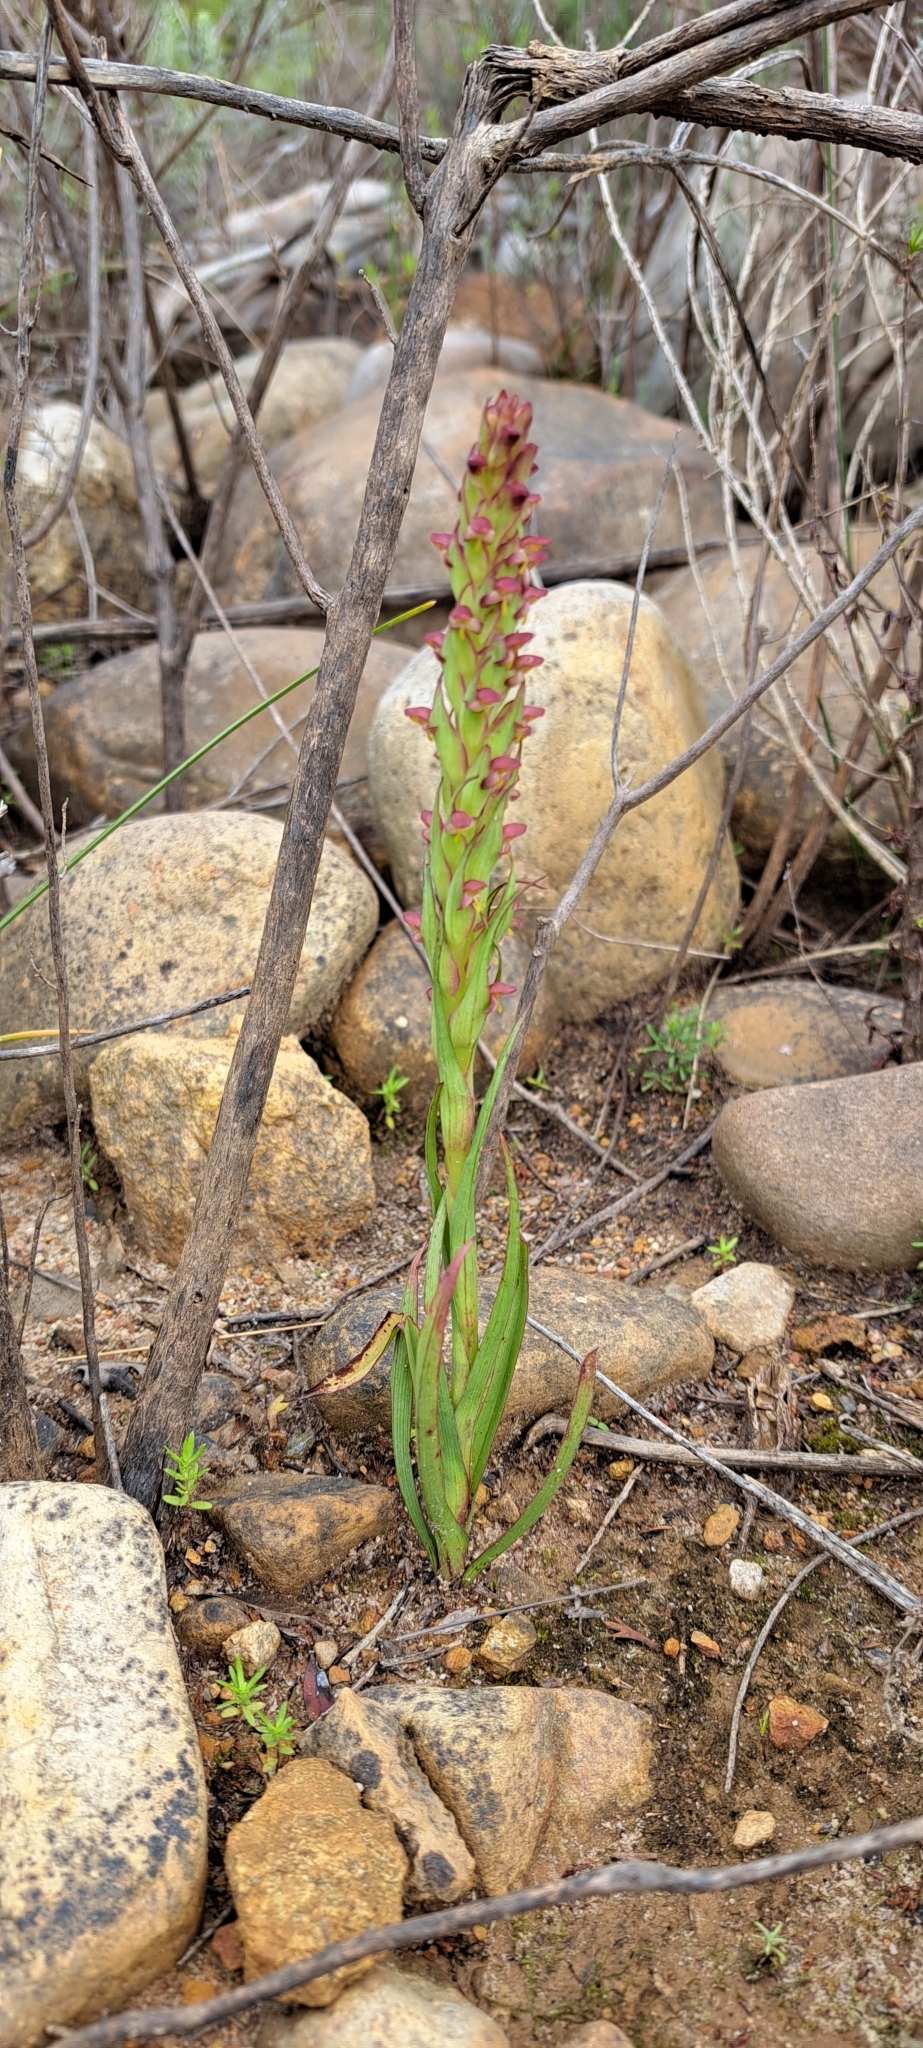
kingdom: Plantae
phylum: Tracheophyta
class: Liliopsida
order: Asparagales
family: Orchidaceae
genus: Disa
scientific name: Disa bracteata
